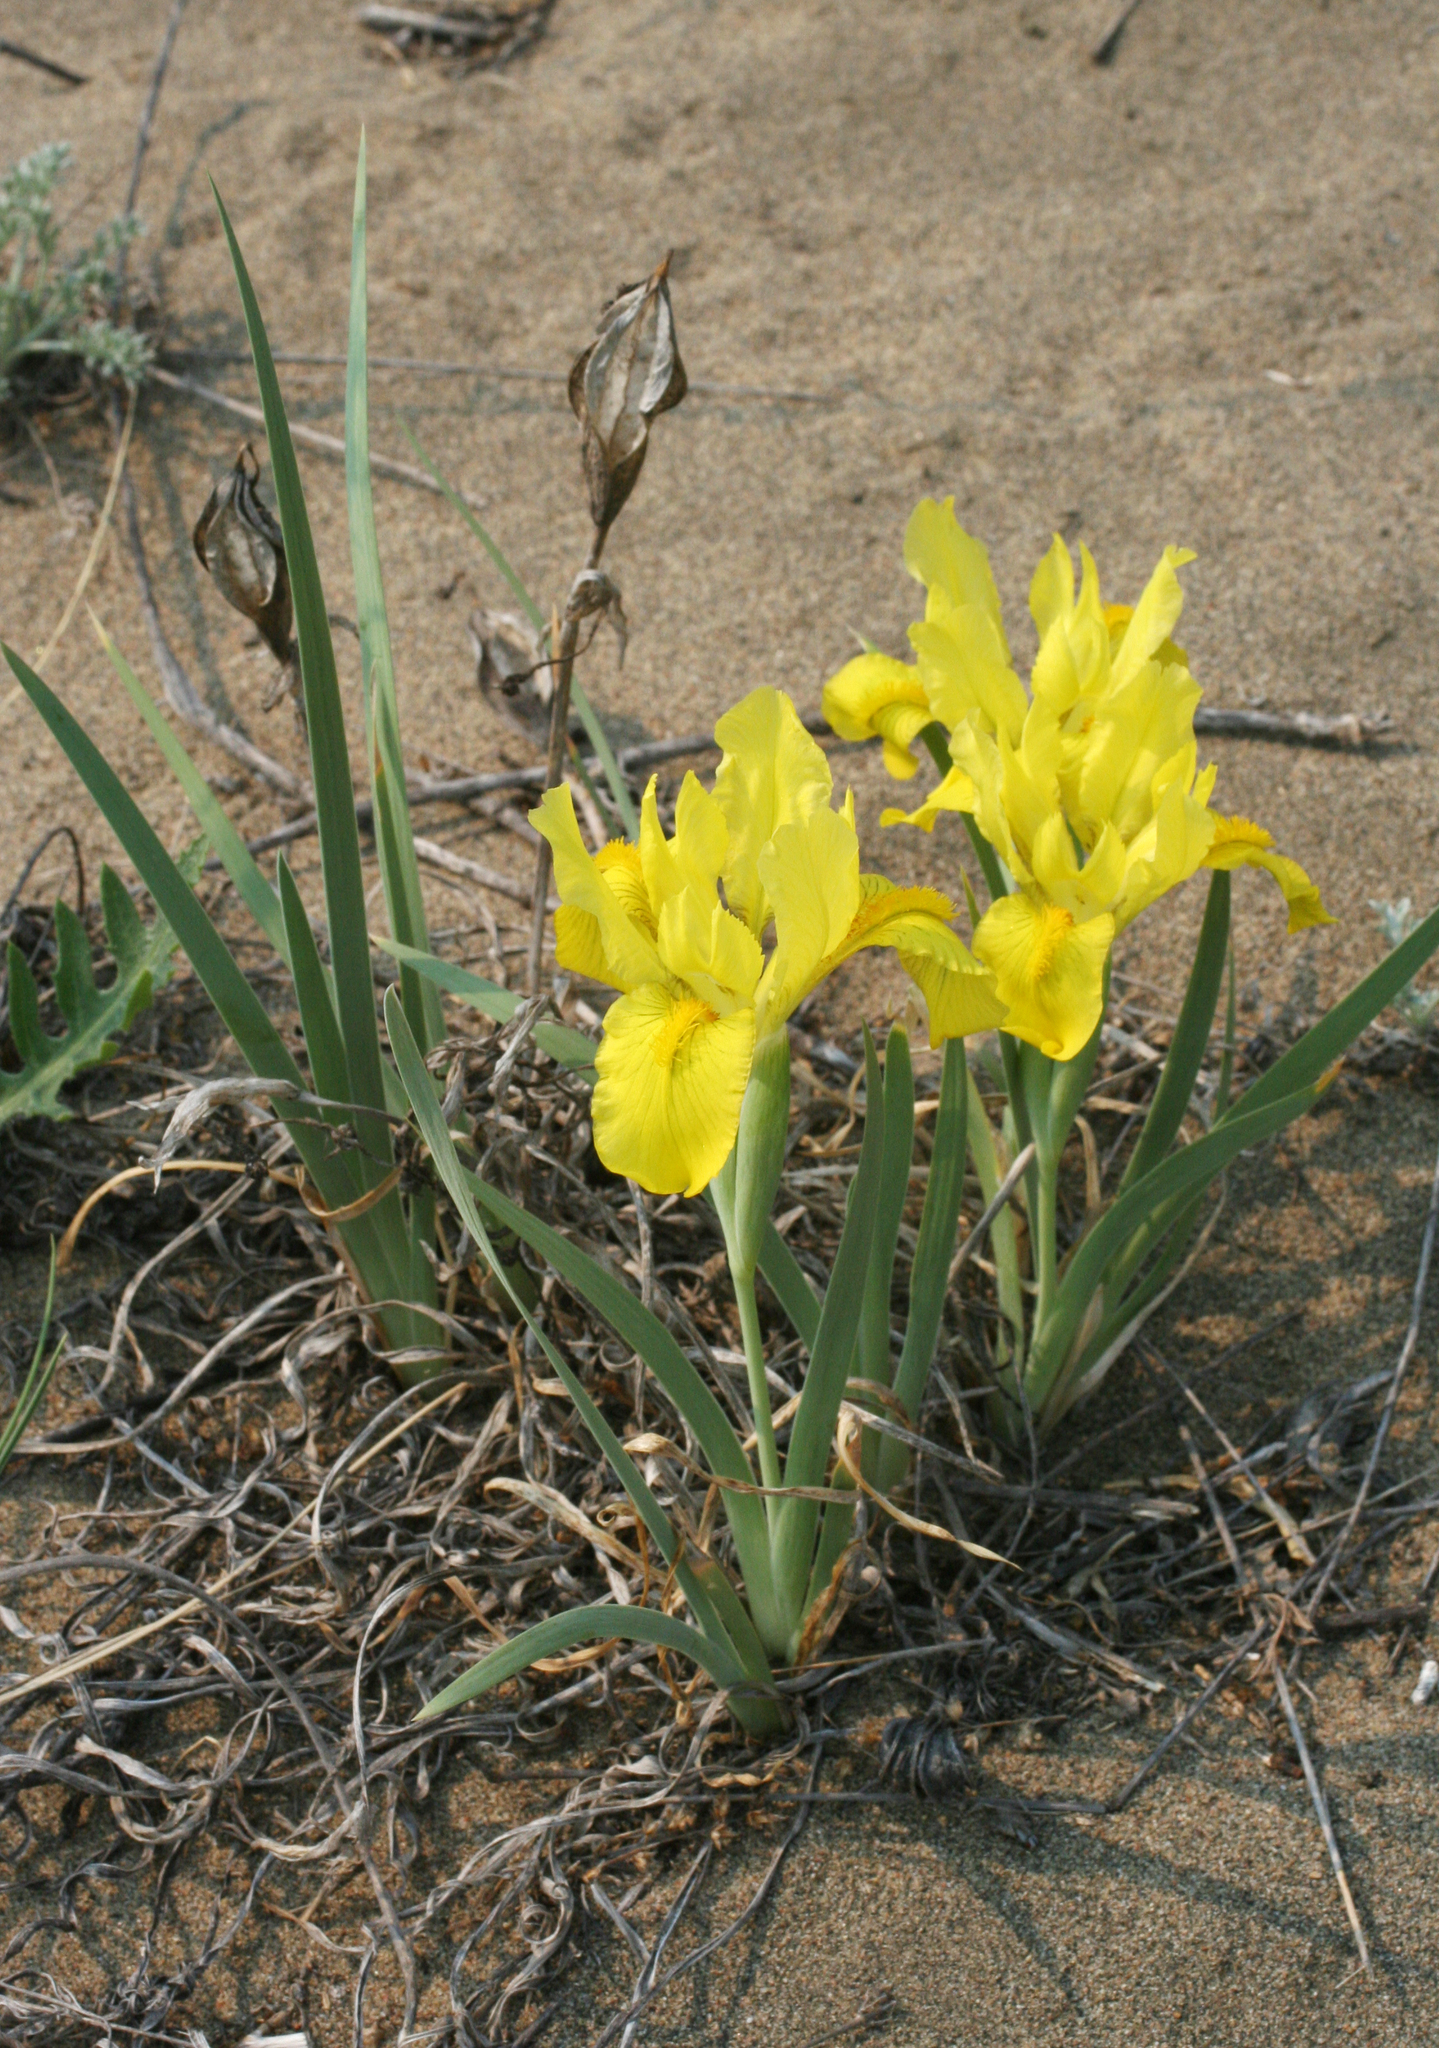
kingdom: Plantae
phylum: Tracheophyta
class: Liliopsida
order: Asparagales
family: Iridaceae
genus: Iris
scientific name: Iris humilis
